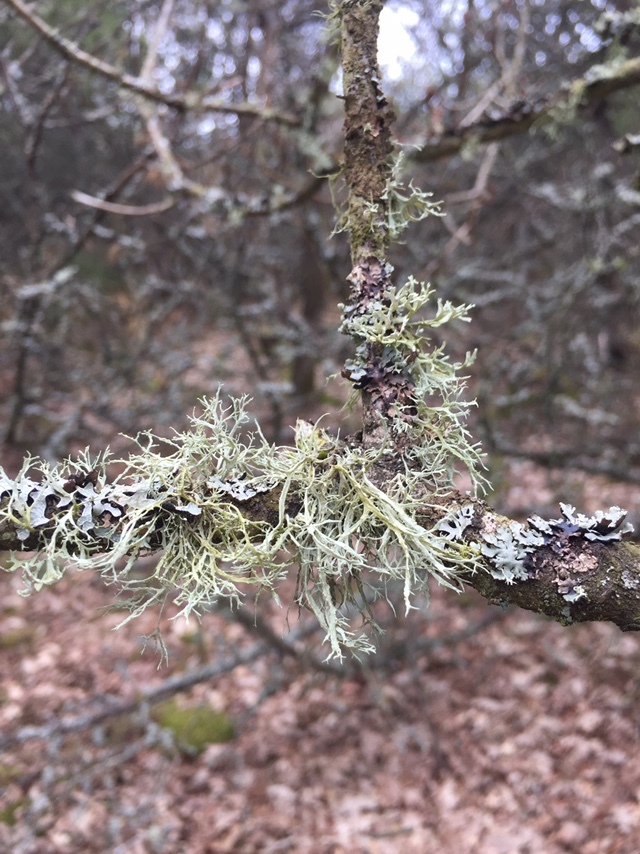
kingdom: Fungi
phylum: Ascomycota
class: Lecanoromycetes
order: Lecanorales
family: Ramalinaceae
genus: Ramalina
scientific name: Ramalina farinacea
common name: Farinose cartilage lichen
